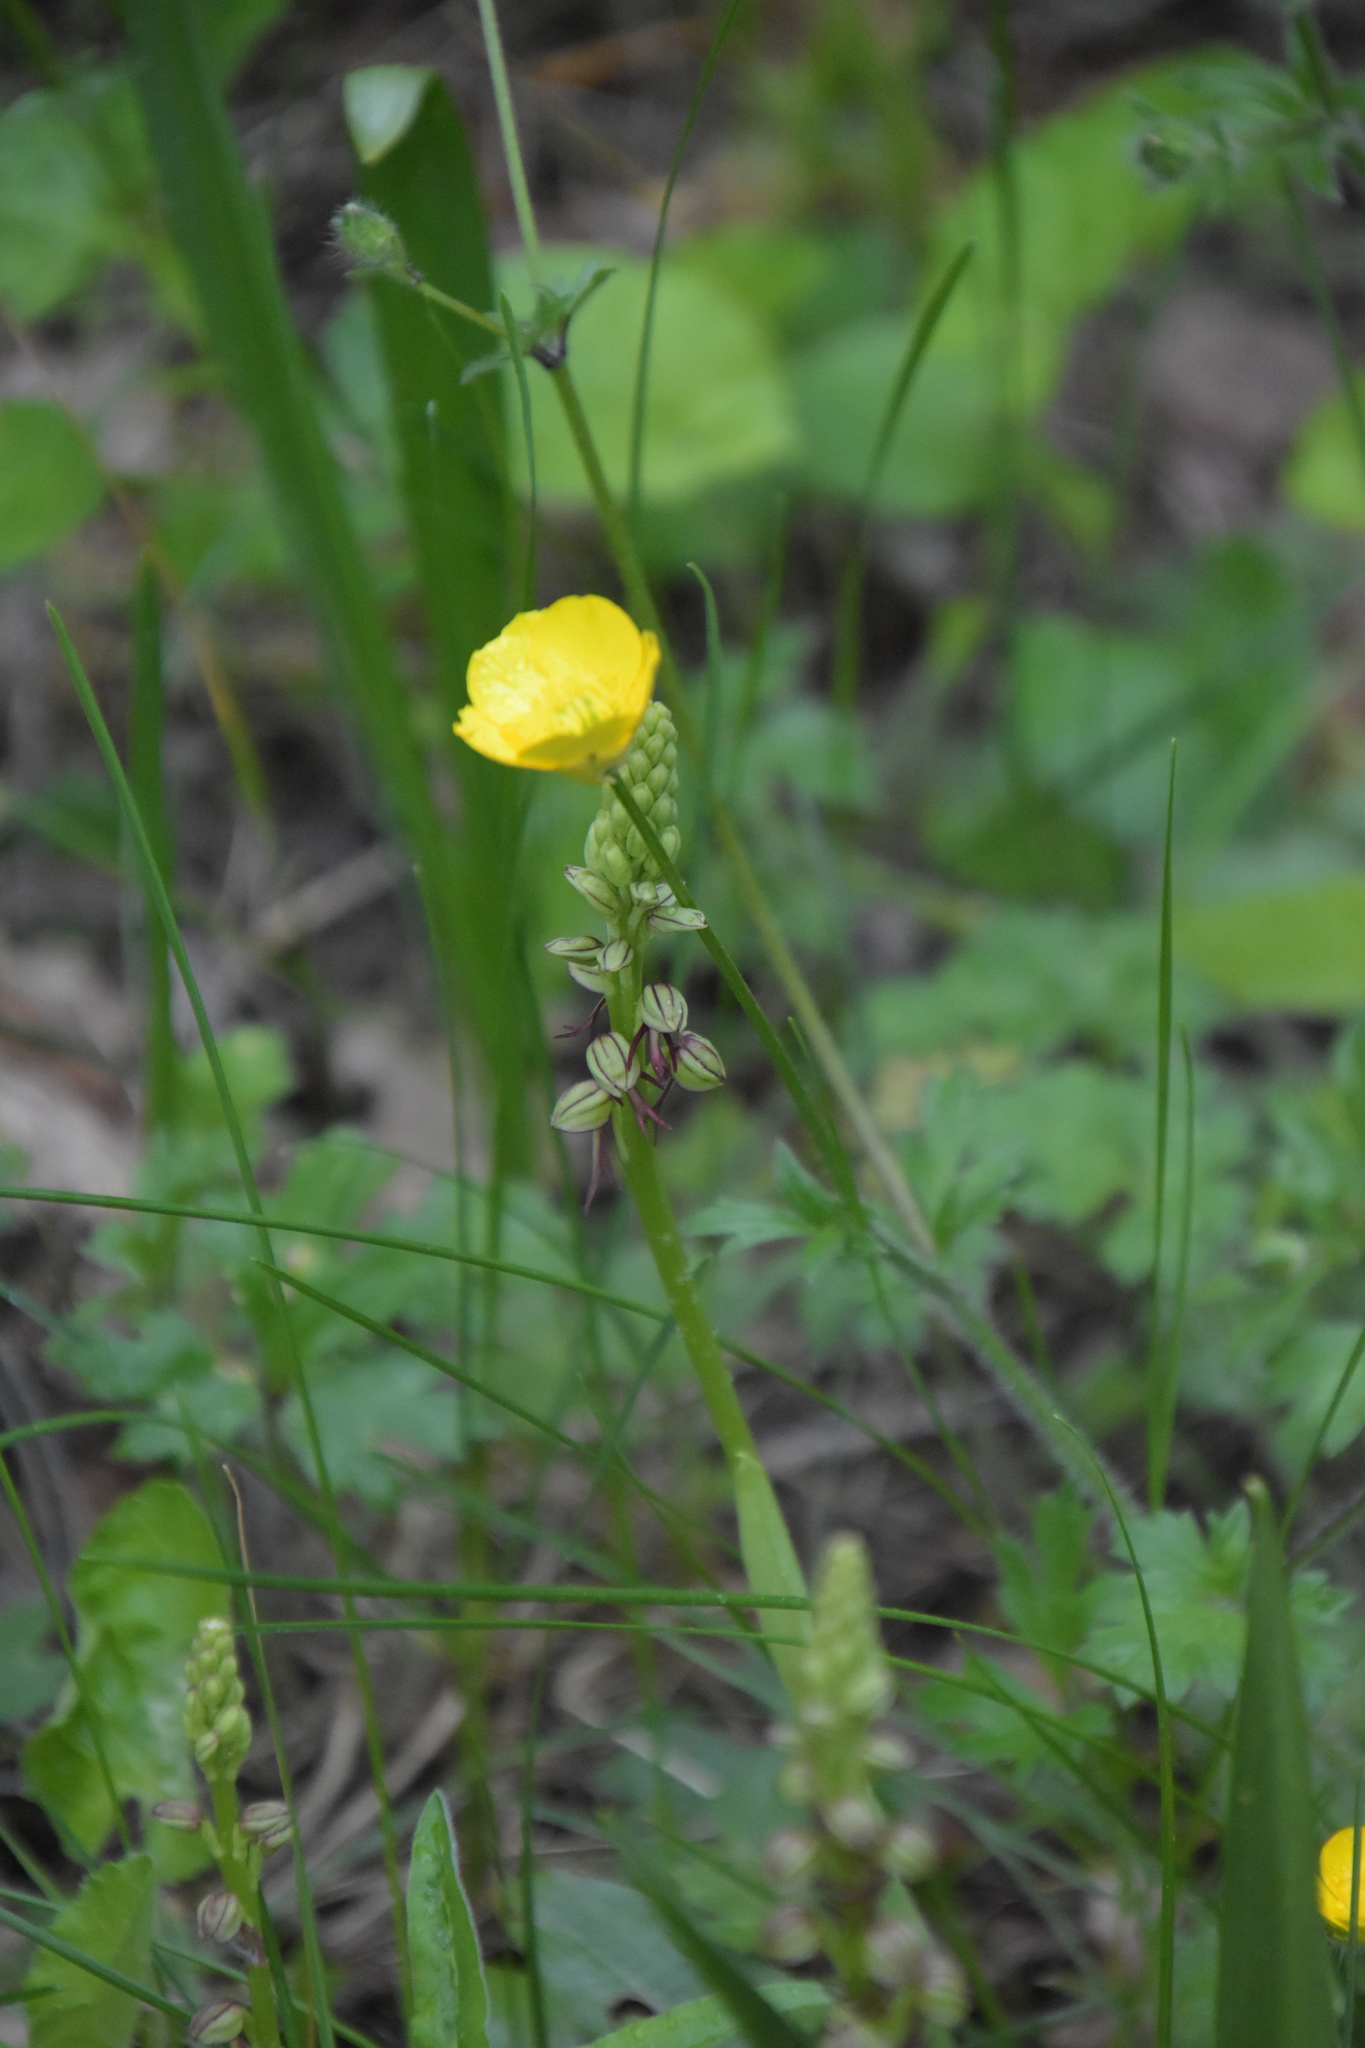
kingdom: Plantae
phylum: Tracheophyta
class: Liliopsida
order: Asparagales
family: Orchidaceae
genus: Orchis
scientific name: Orchis anthropophora
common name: Man orchid
